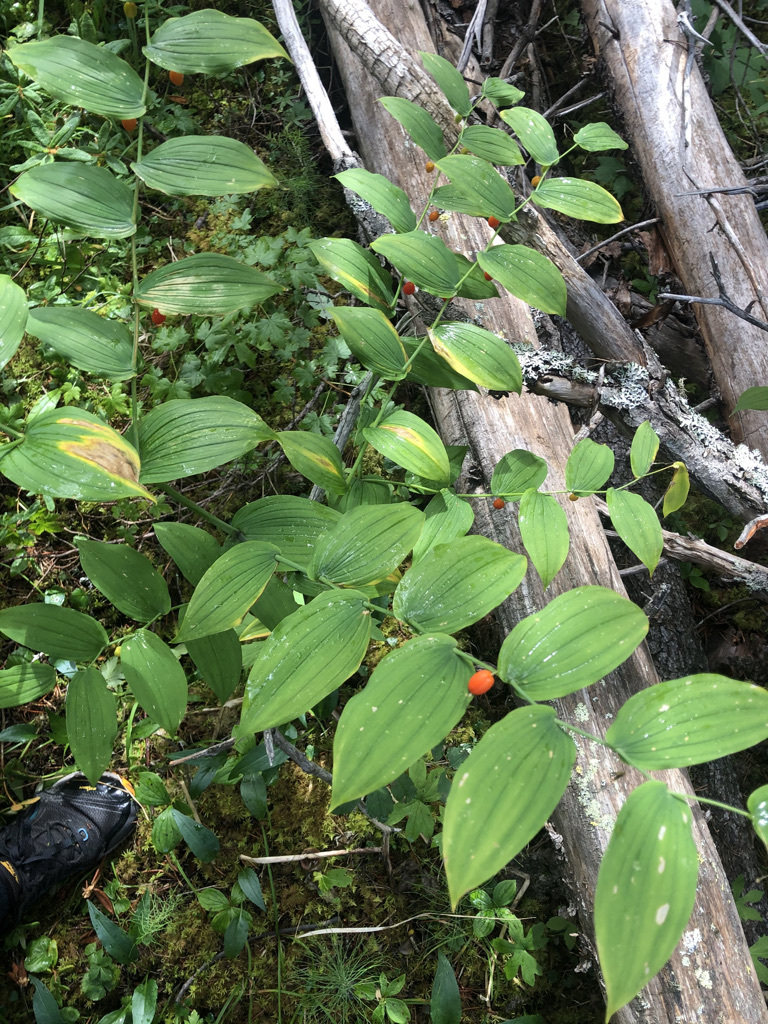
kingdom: Plantae
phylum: Tracheophyta
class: Liliopsida
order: Liliales
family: Liliaceae
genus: Streptopus
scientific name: Streptopus amplexifolius
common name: Clasp twisted stalk
